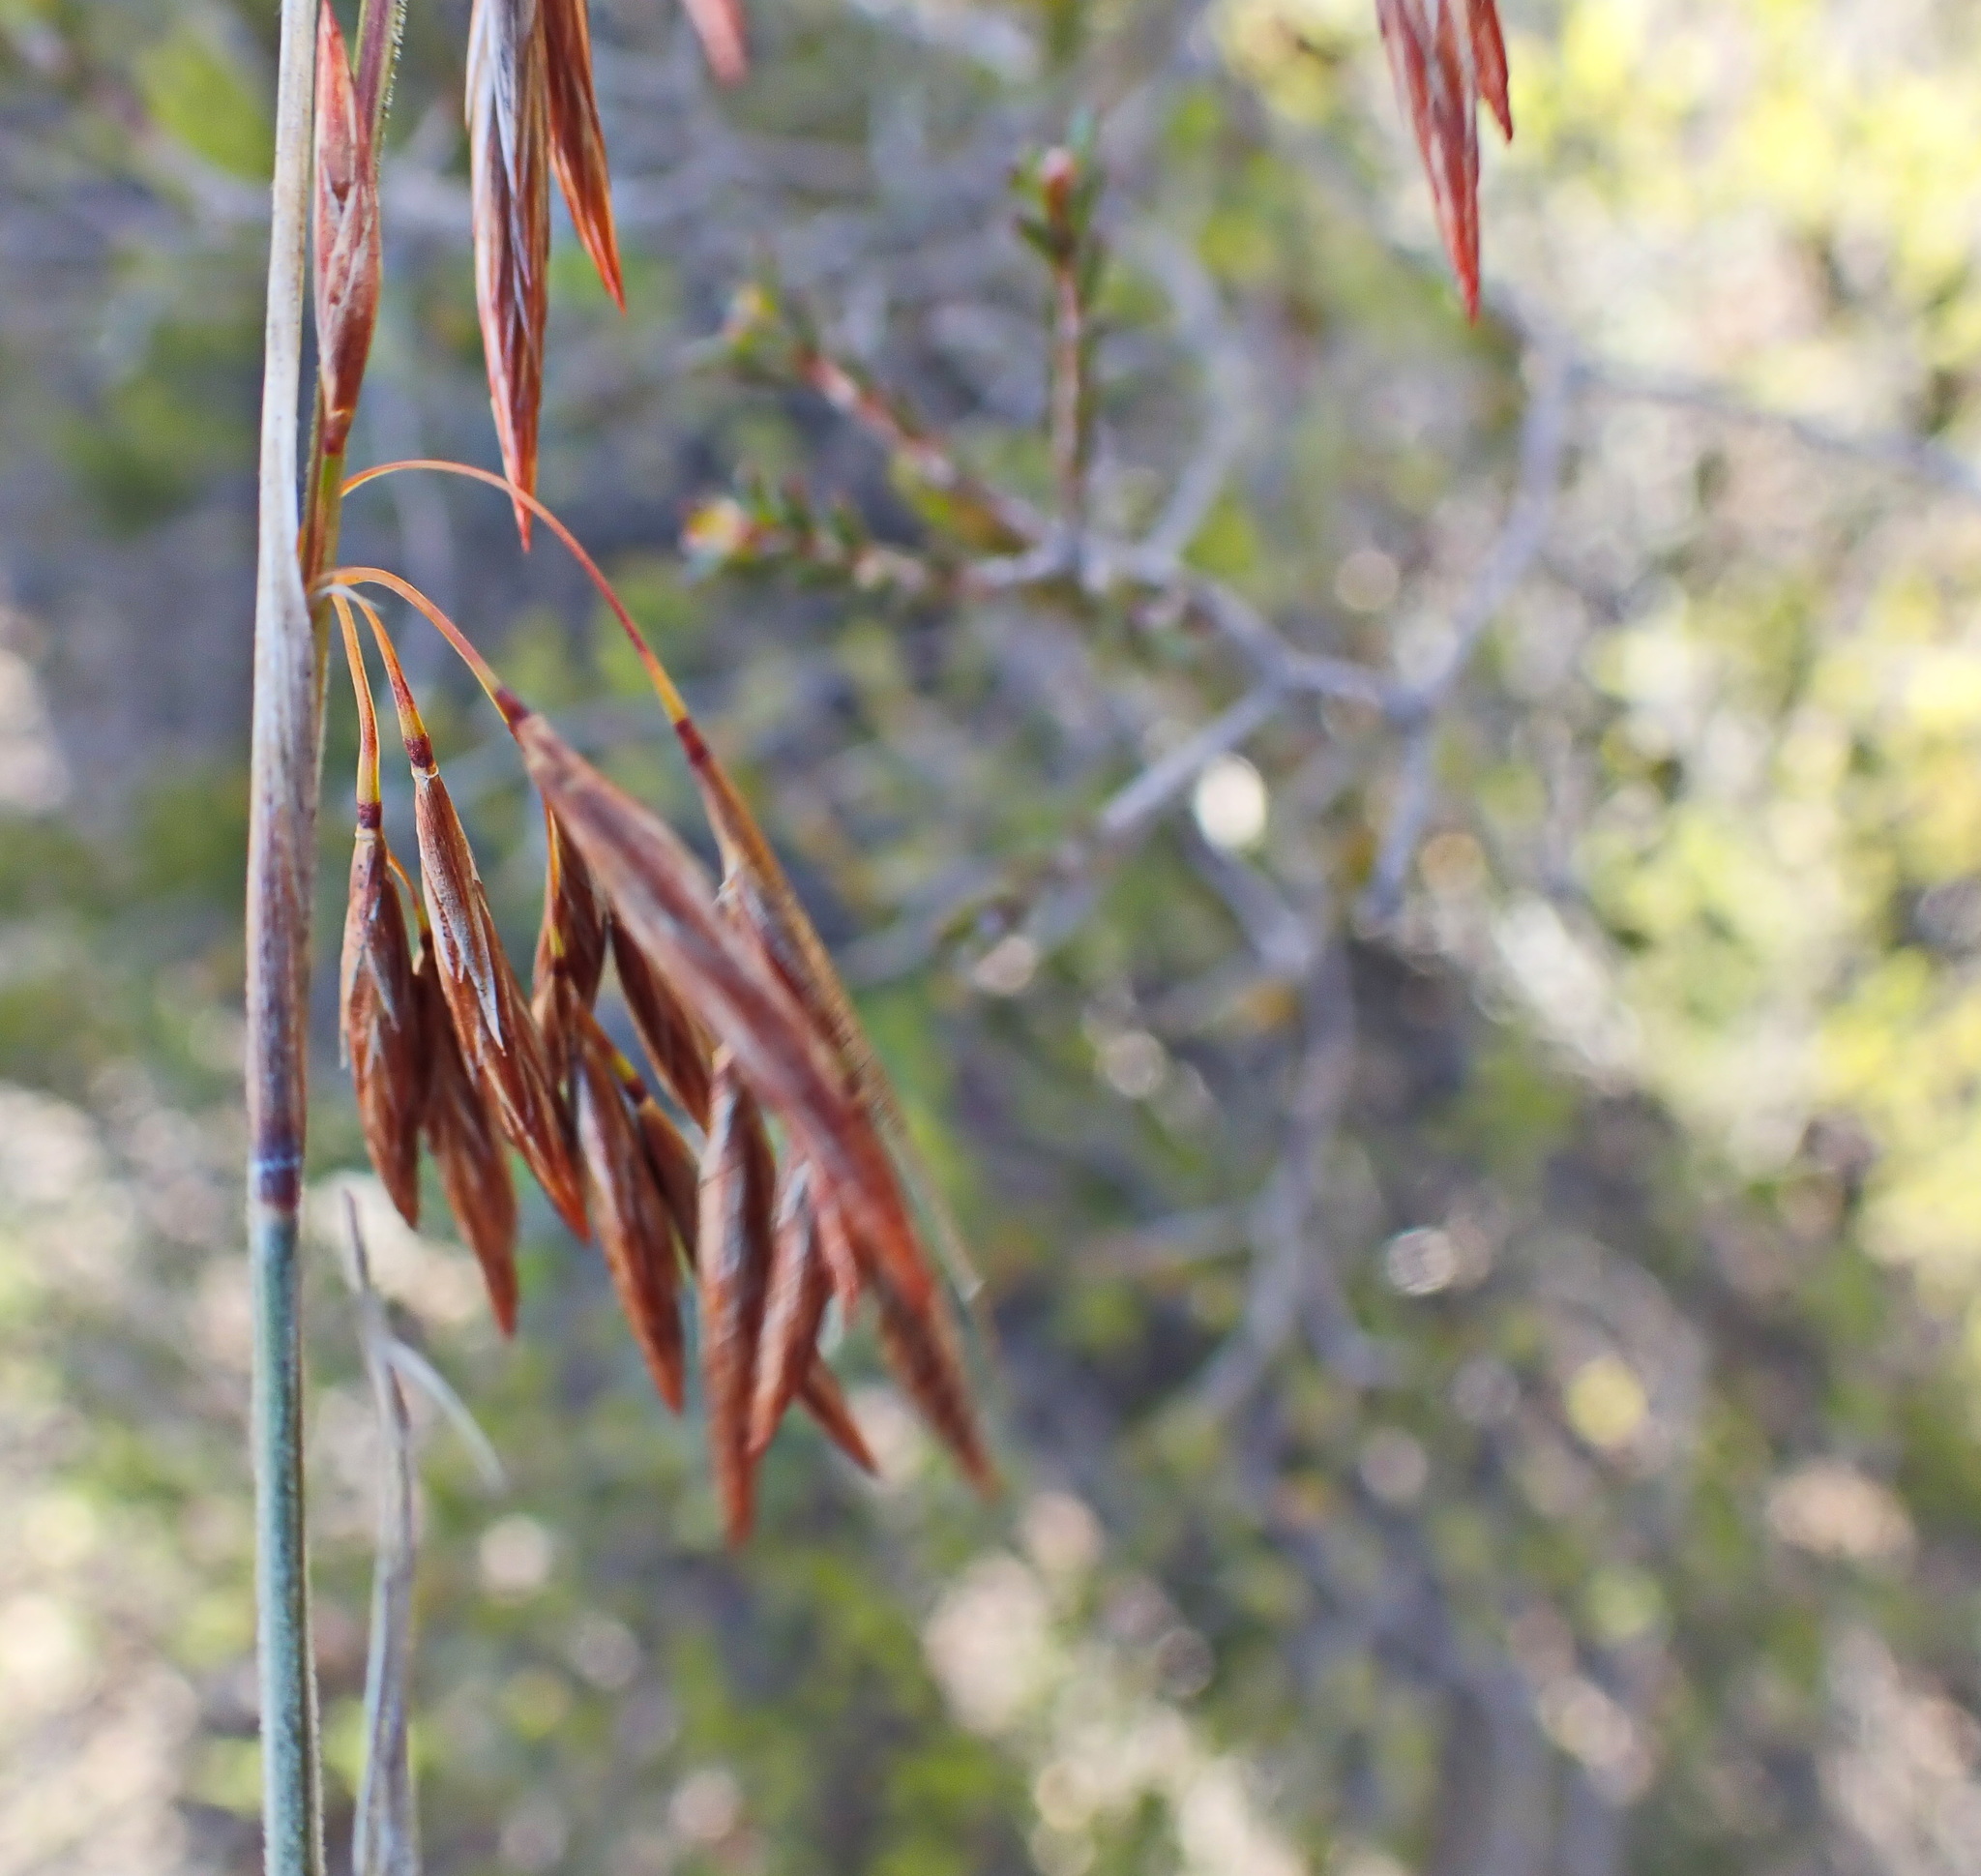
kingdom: Plantae
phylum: Tracheophyta
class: Liliopsida
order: Poales
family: Restionaceae
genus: Thamnochortus
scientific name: Thamnochortus rigidus
